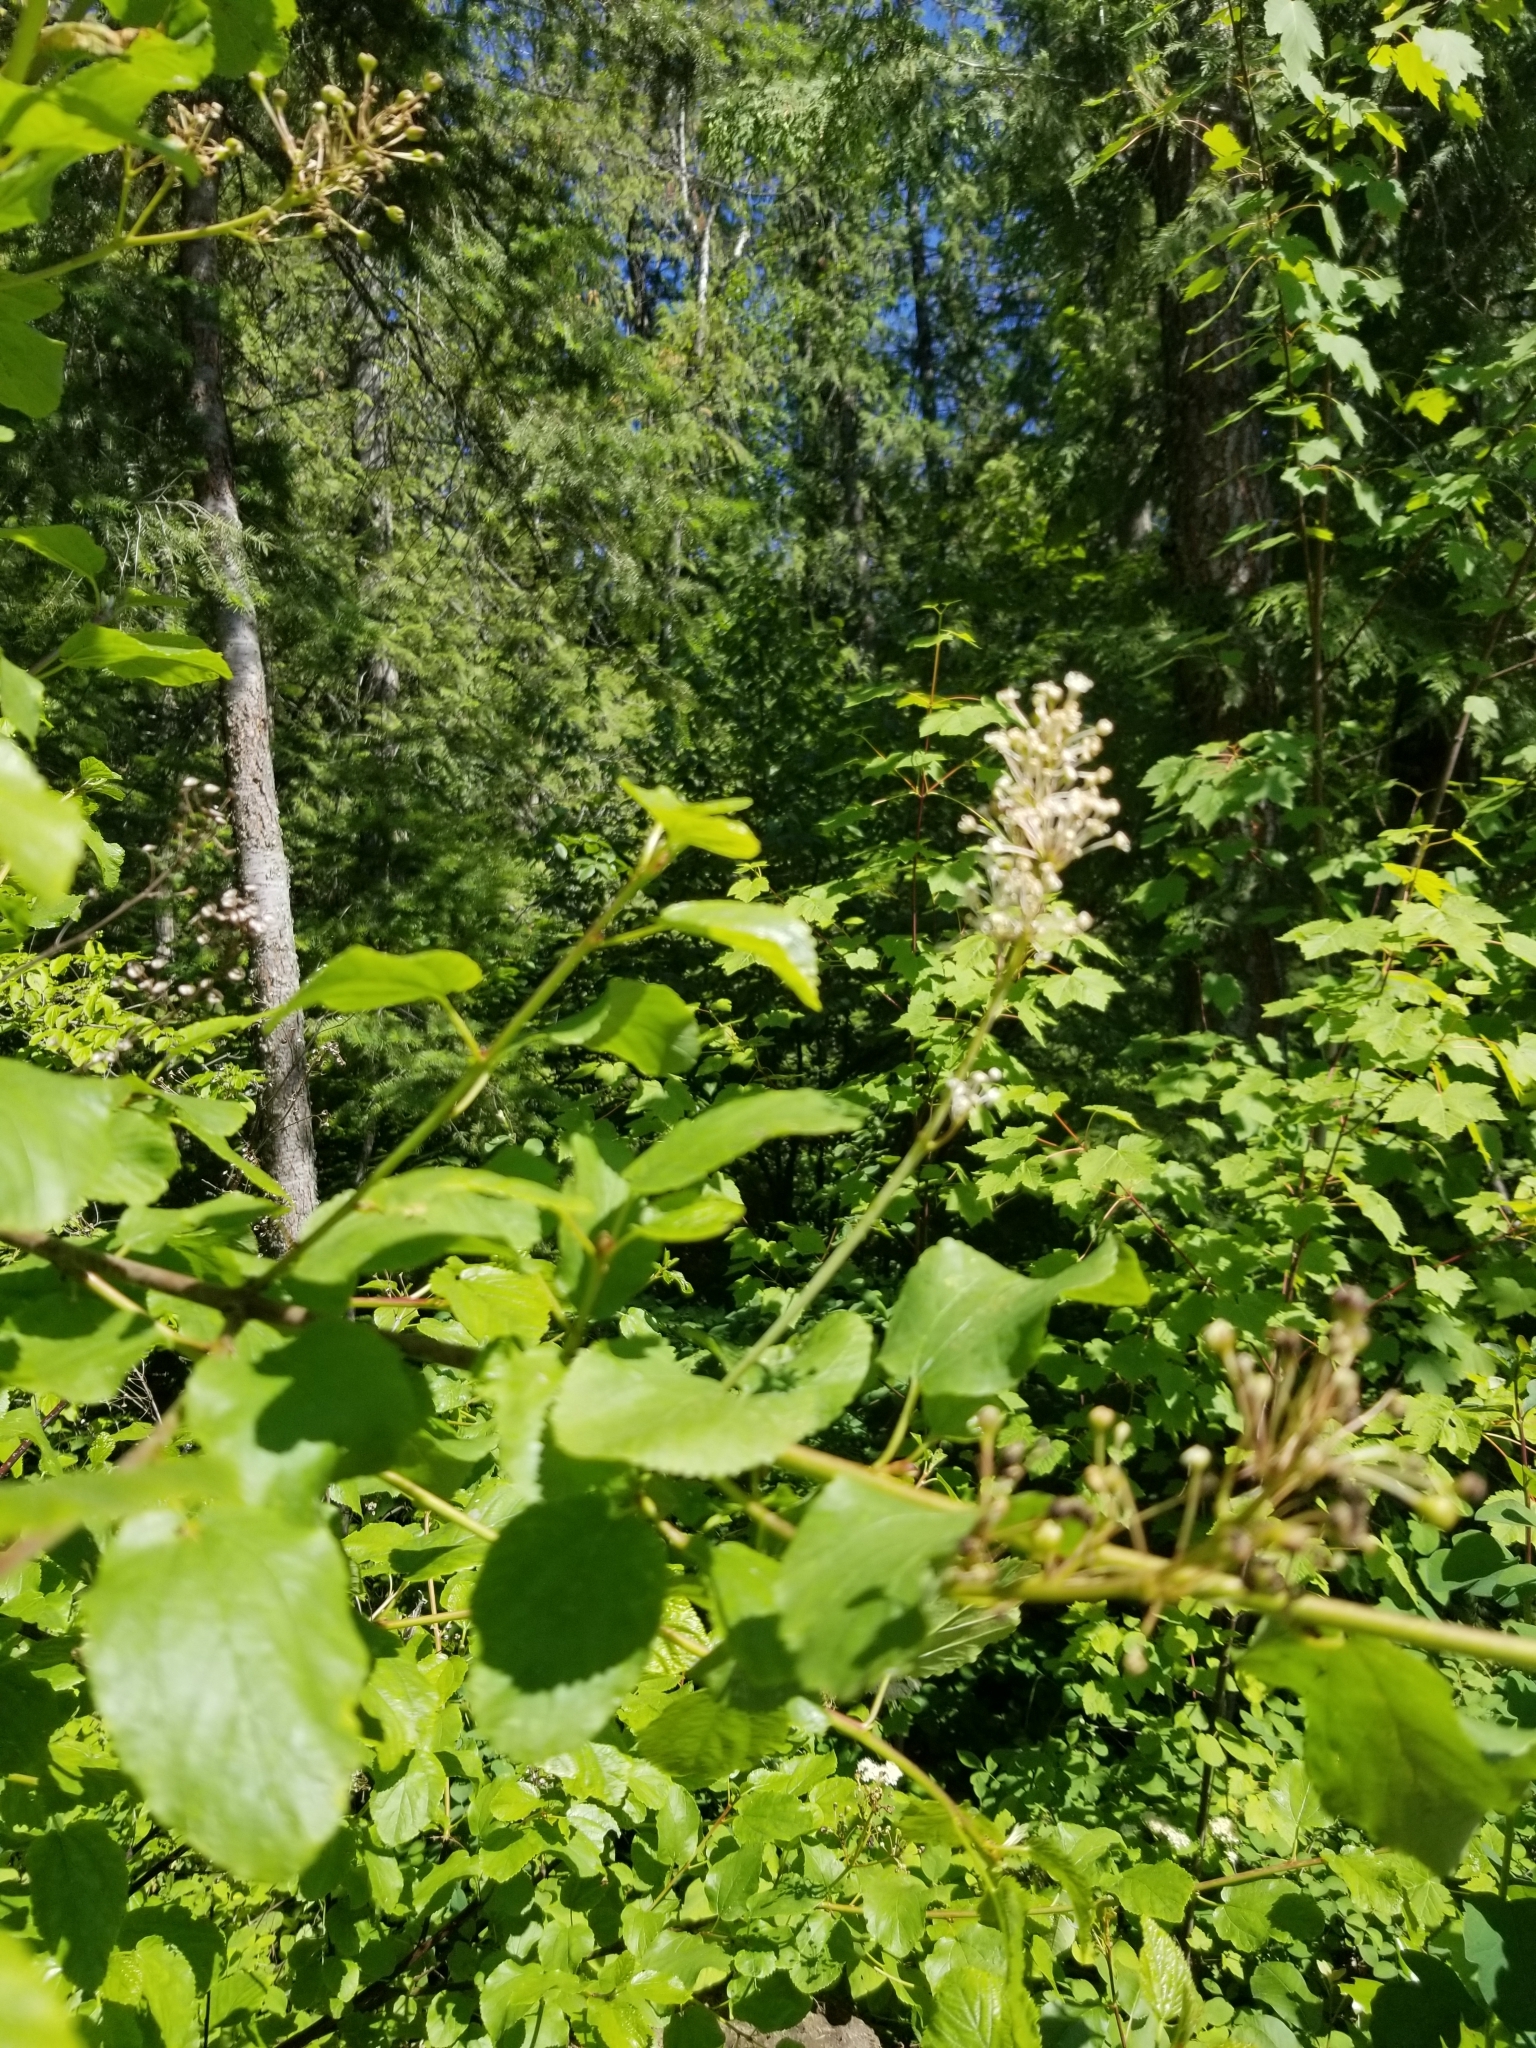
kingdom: Plantae
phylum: Tracheophyta
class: Magnoliopsida
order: Rosales
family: Rhamnaceae
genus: Ceanothus
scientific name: Ceanothus sanguineus
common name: Teatree
